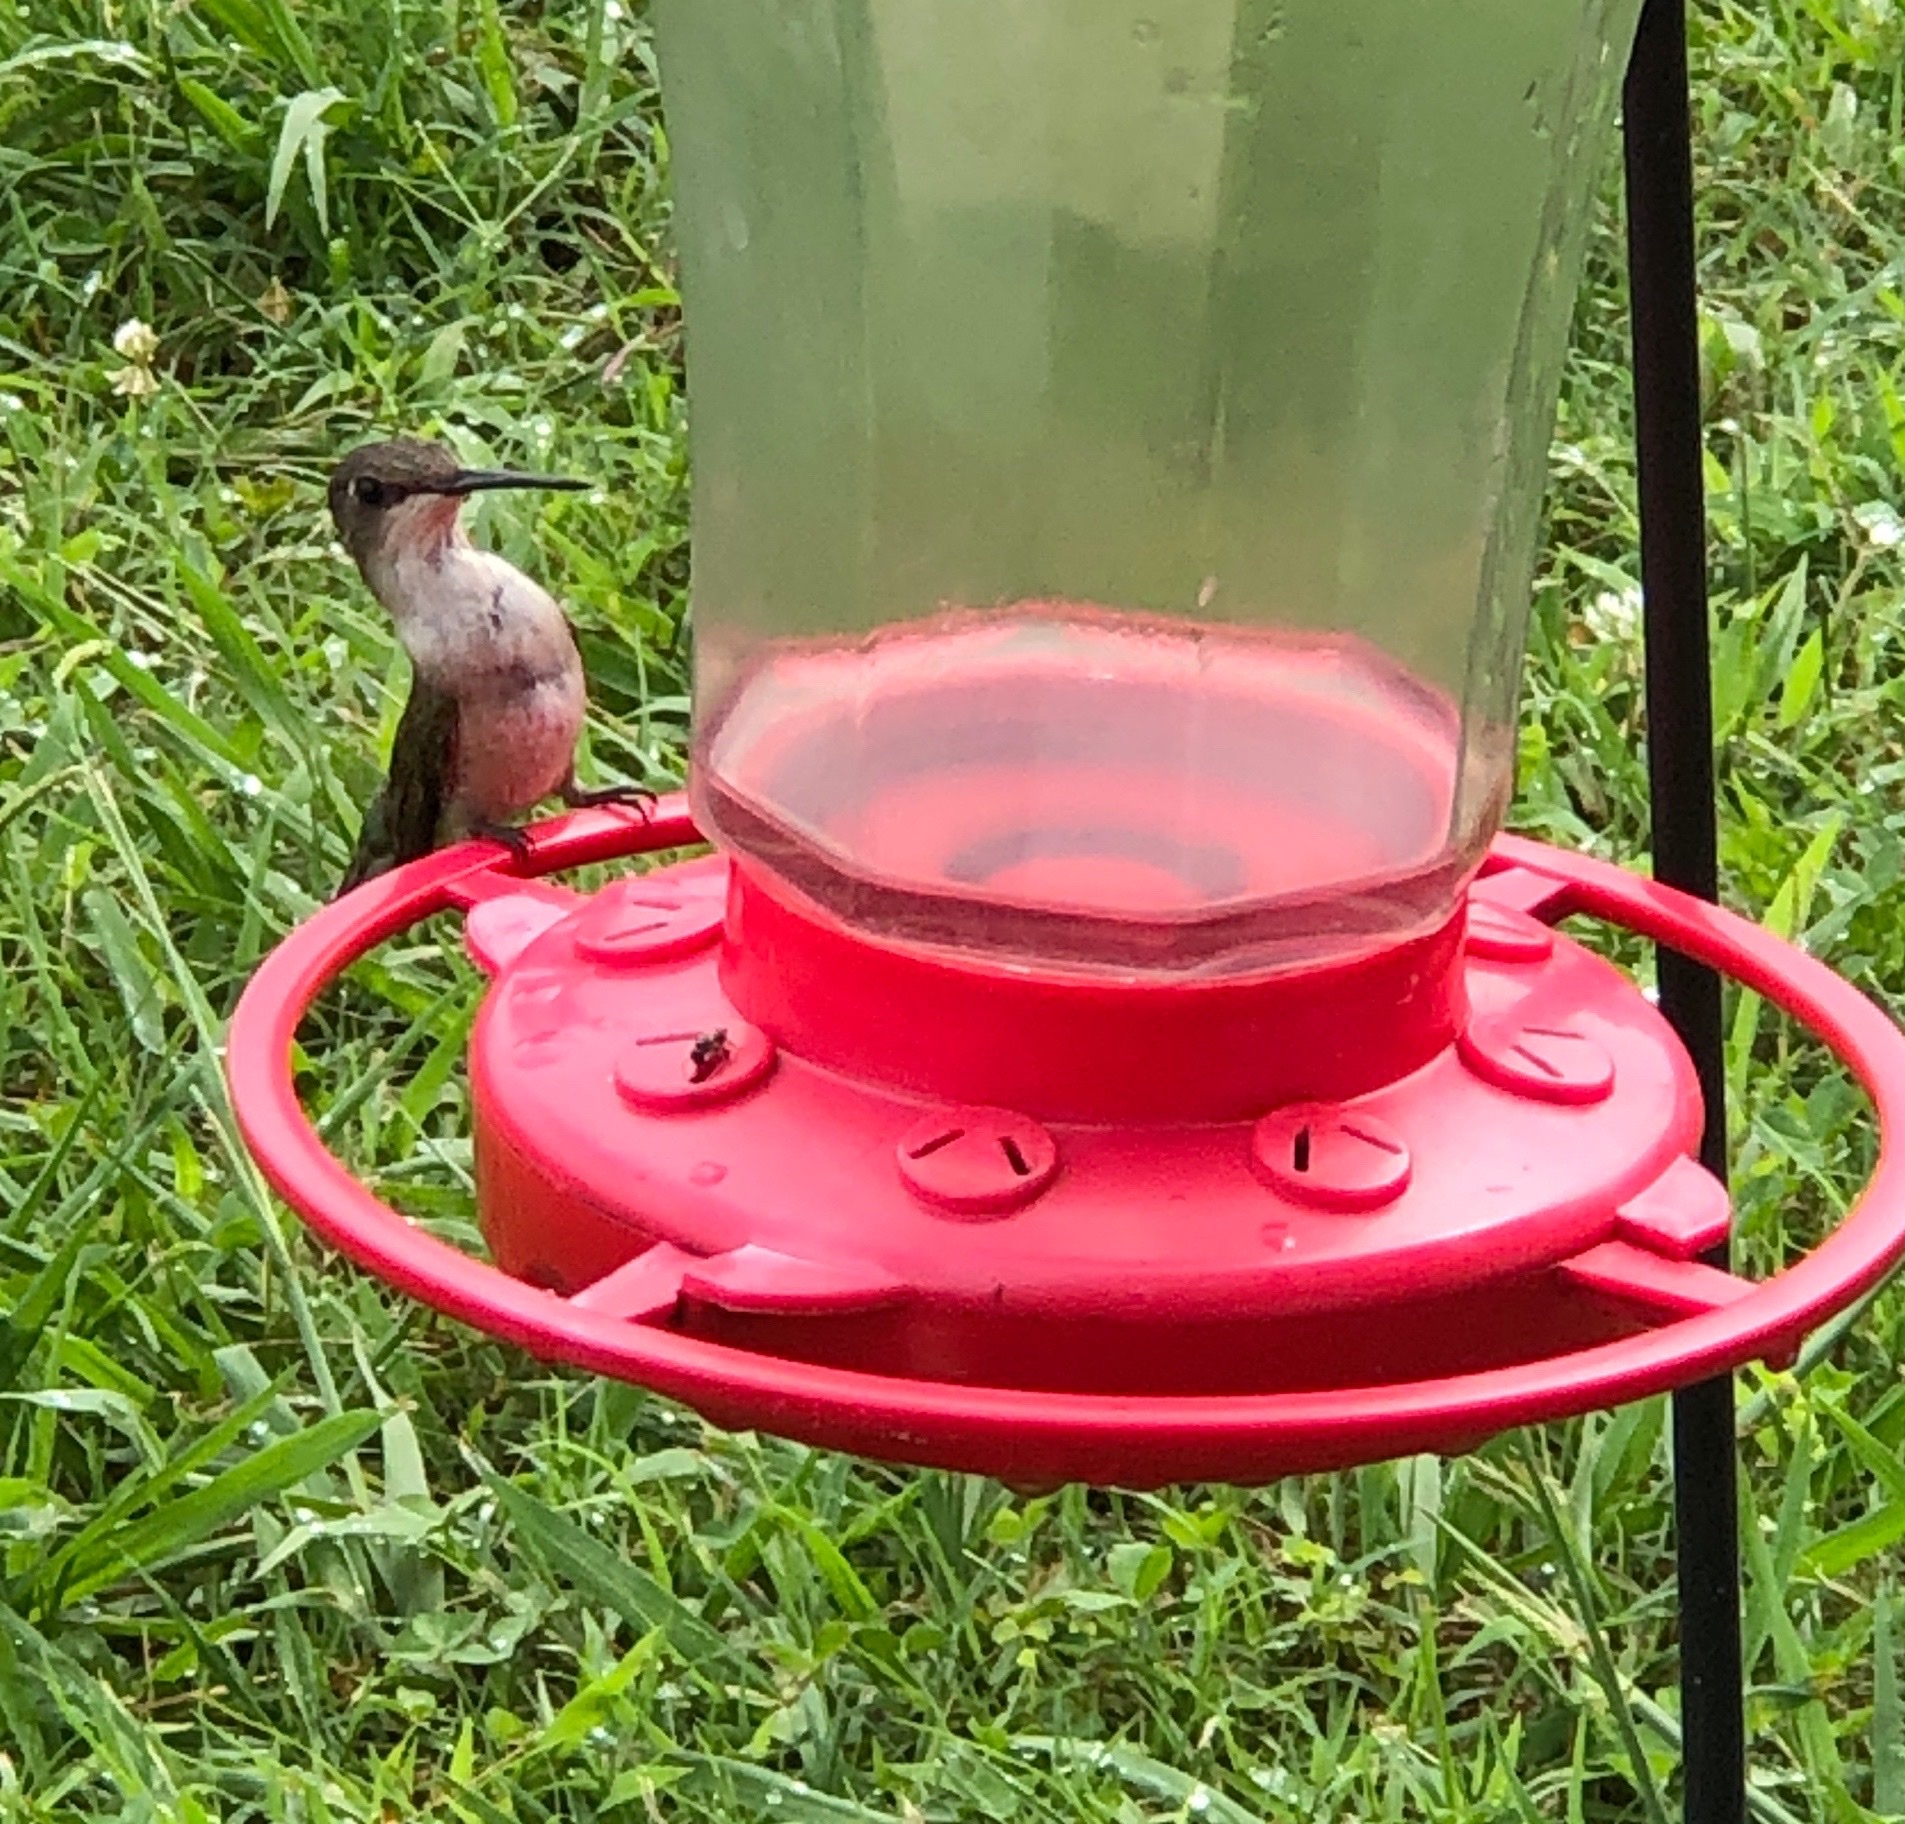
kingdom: Animalia
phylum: Chordata
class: Aves
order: Apodiformes
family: Trochilidae
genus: Archilochus
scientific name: Archilochus colubris
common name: Ruby-throated hummingbird
